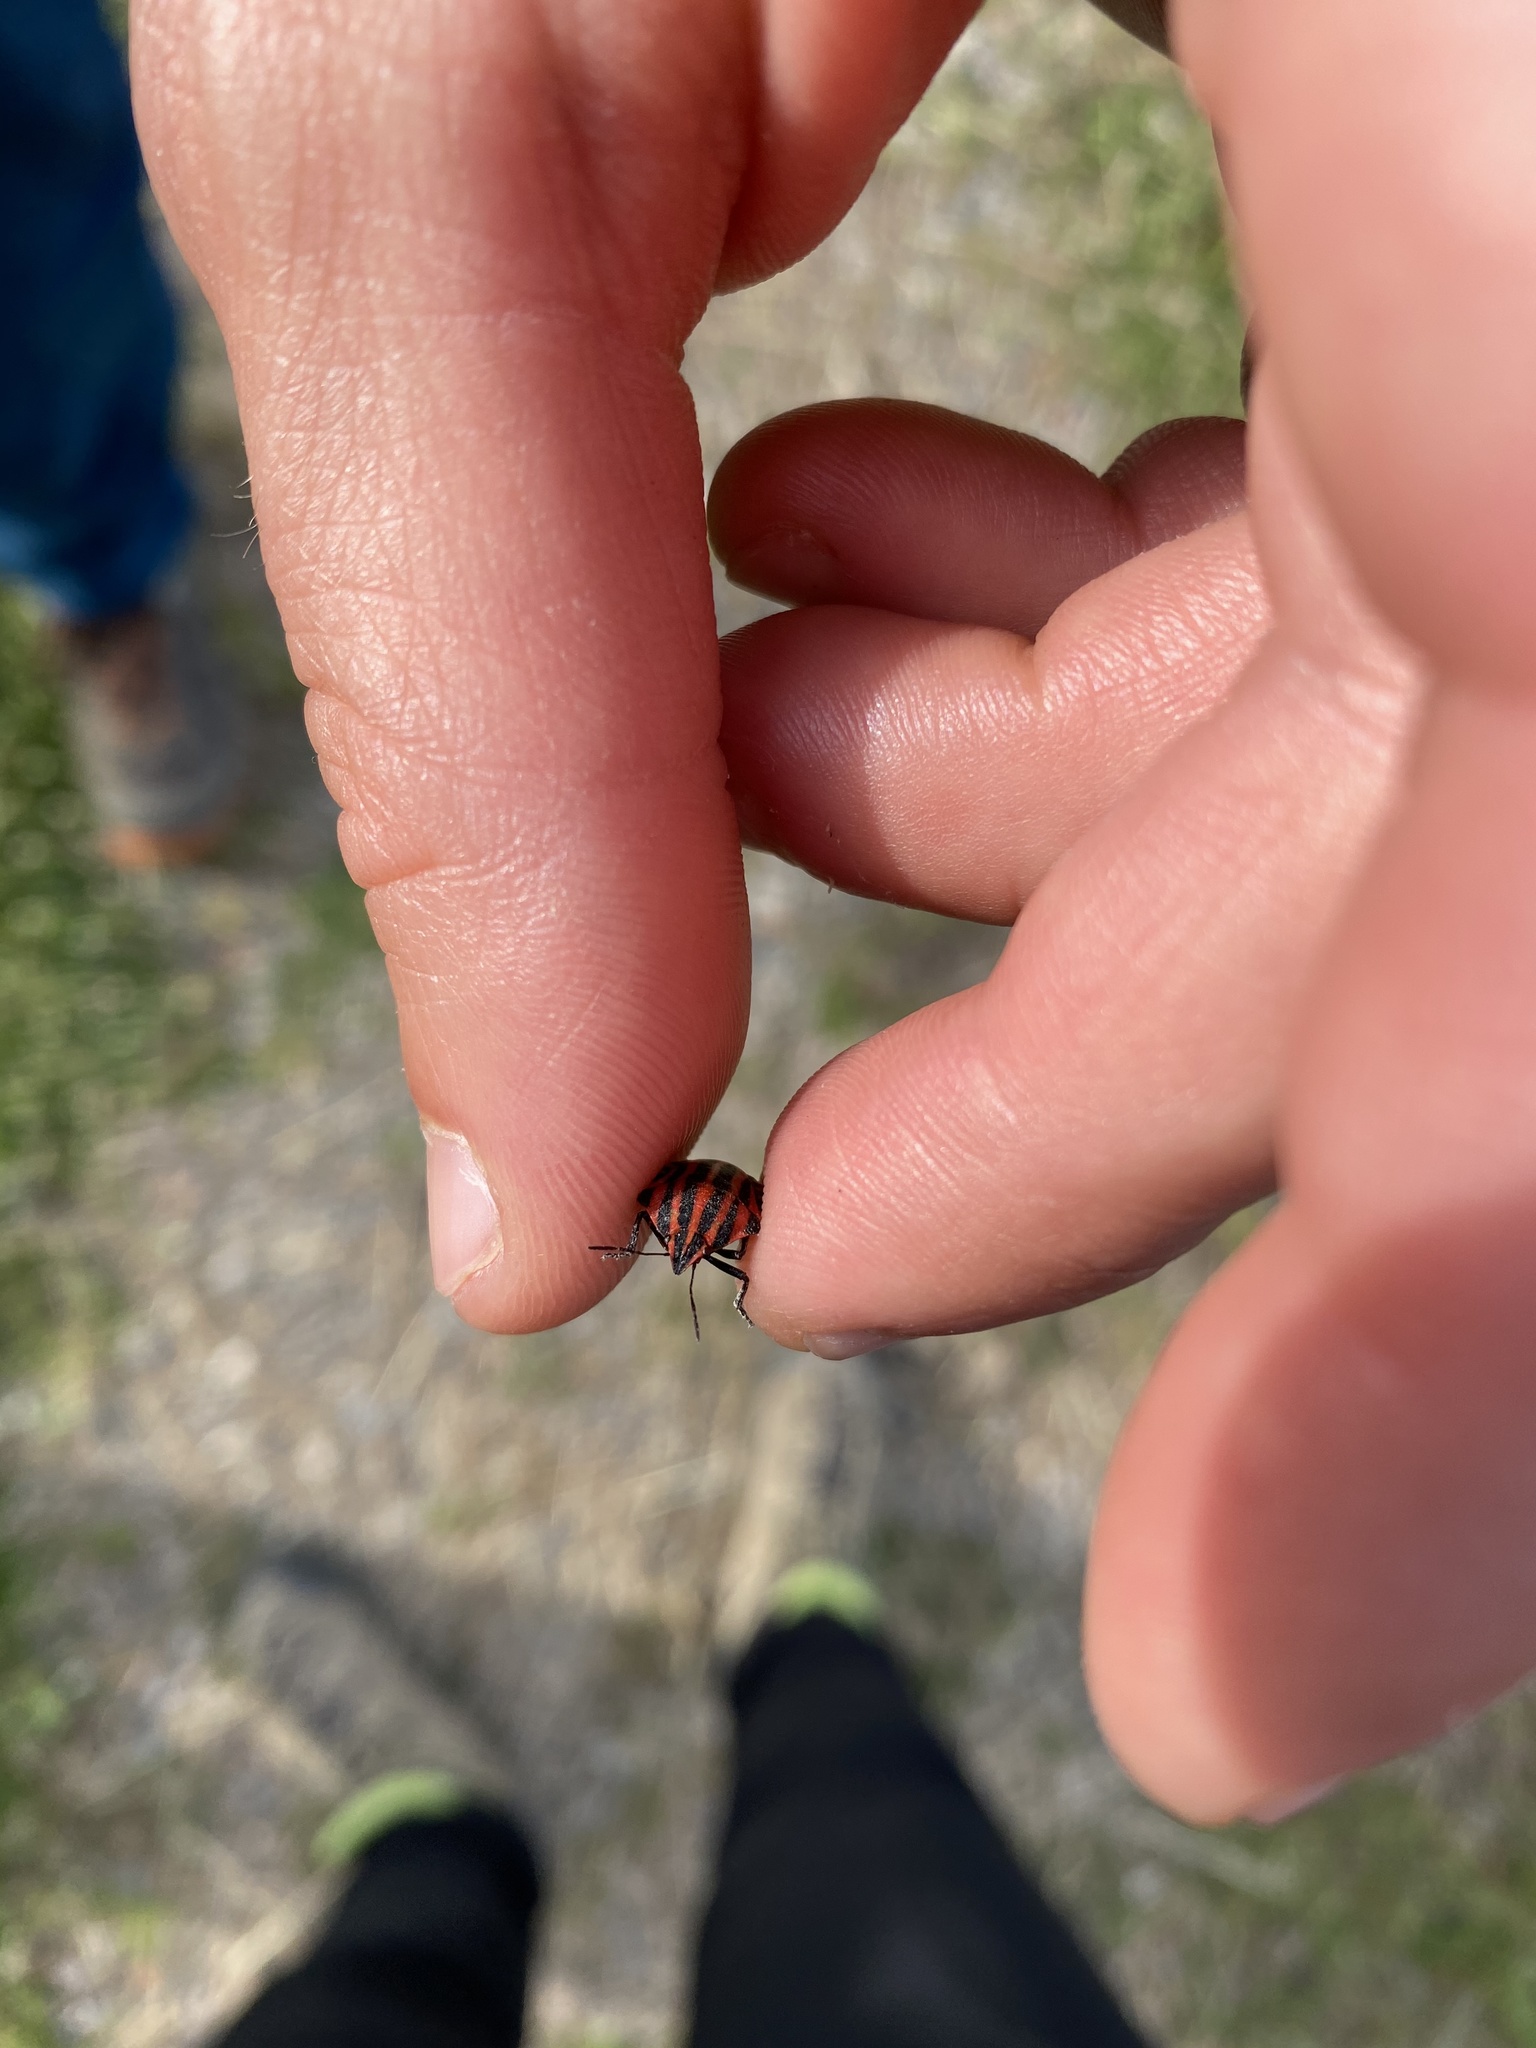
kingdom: Animalia
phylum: Arthropoda
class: Insecta
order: Hemiptera
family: Pentatomidae
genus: Graphosoma
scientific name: Graphosoma italicum
